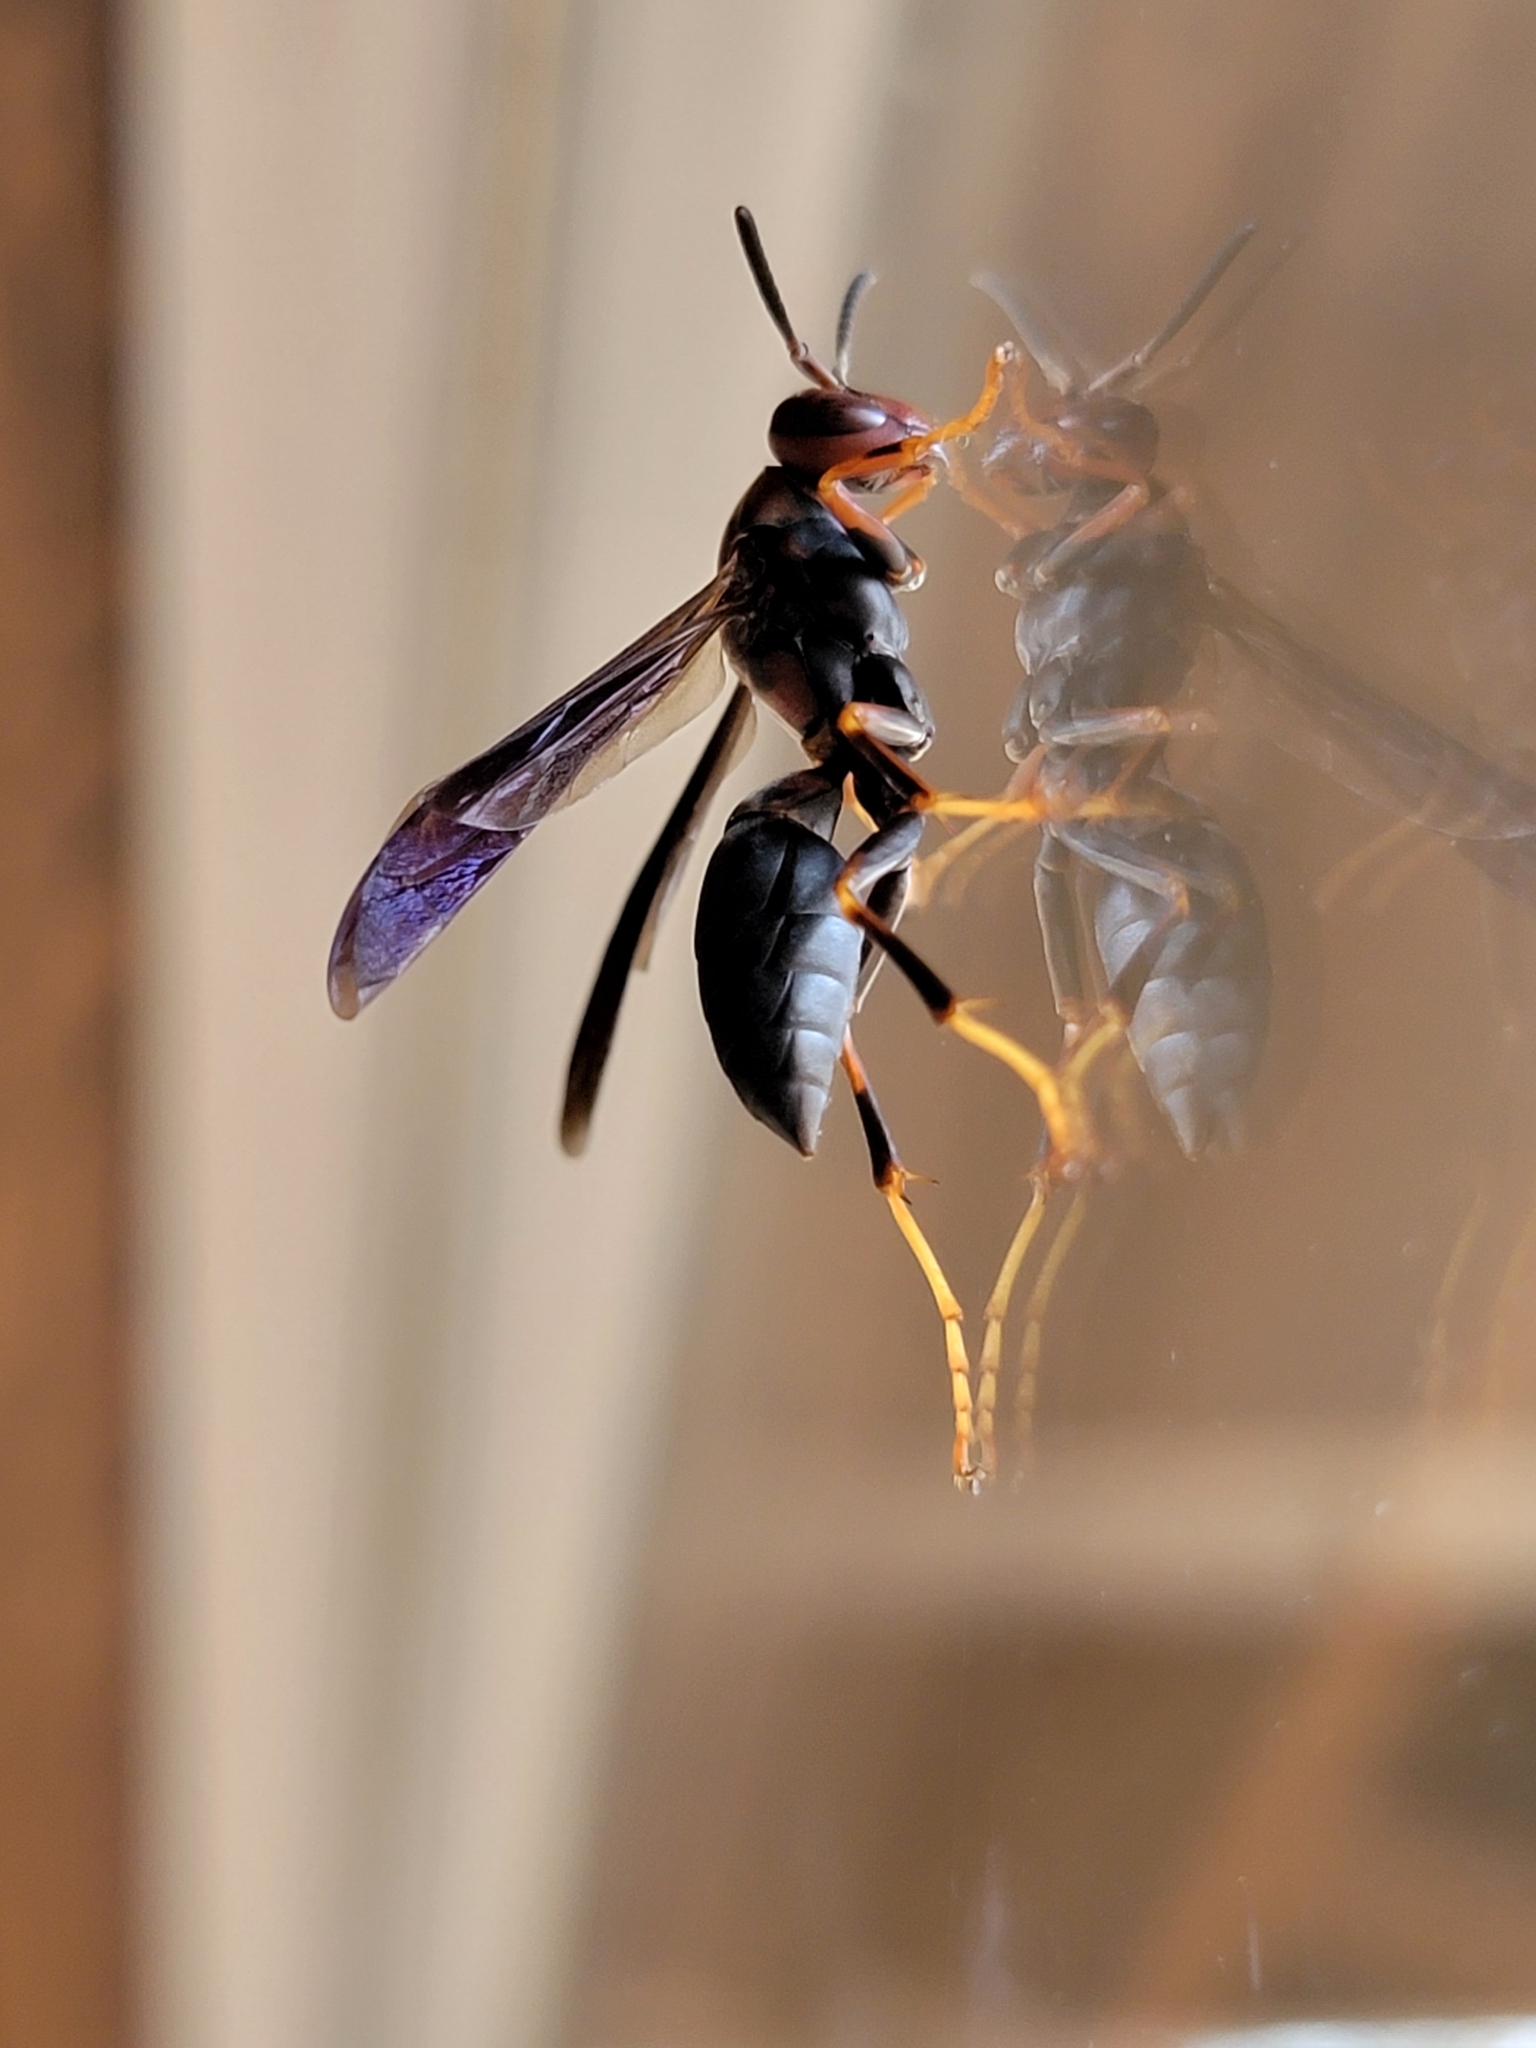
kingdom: Animalia
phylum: Arthropoda
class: Insecta
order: Hymenoptera
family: Eumenidae
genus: Polistes
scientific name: Polistes metricus
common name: Metric paper wasp
